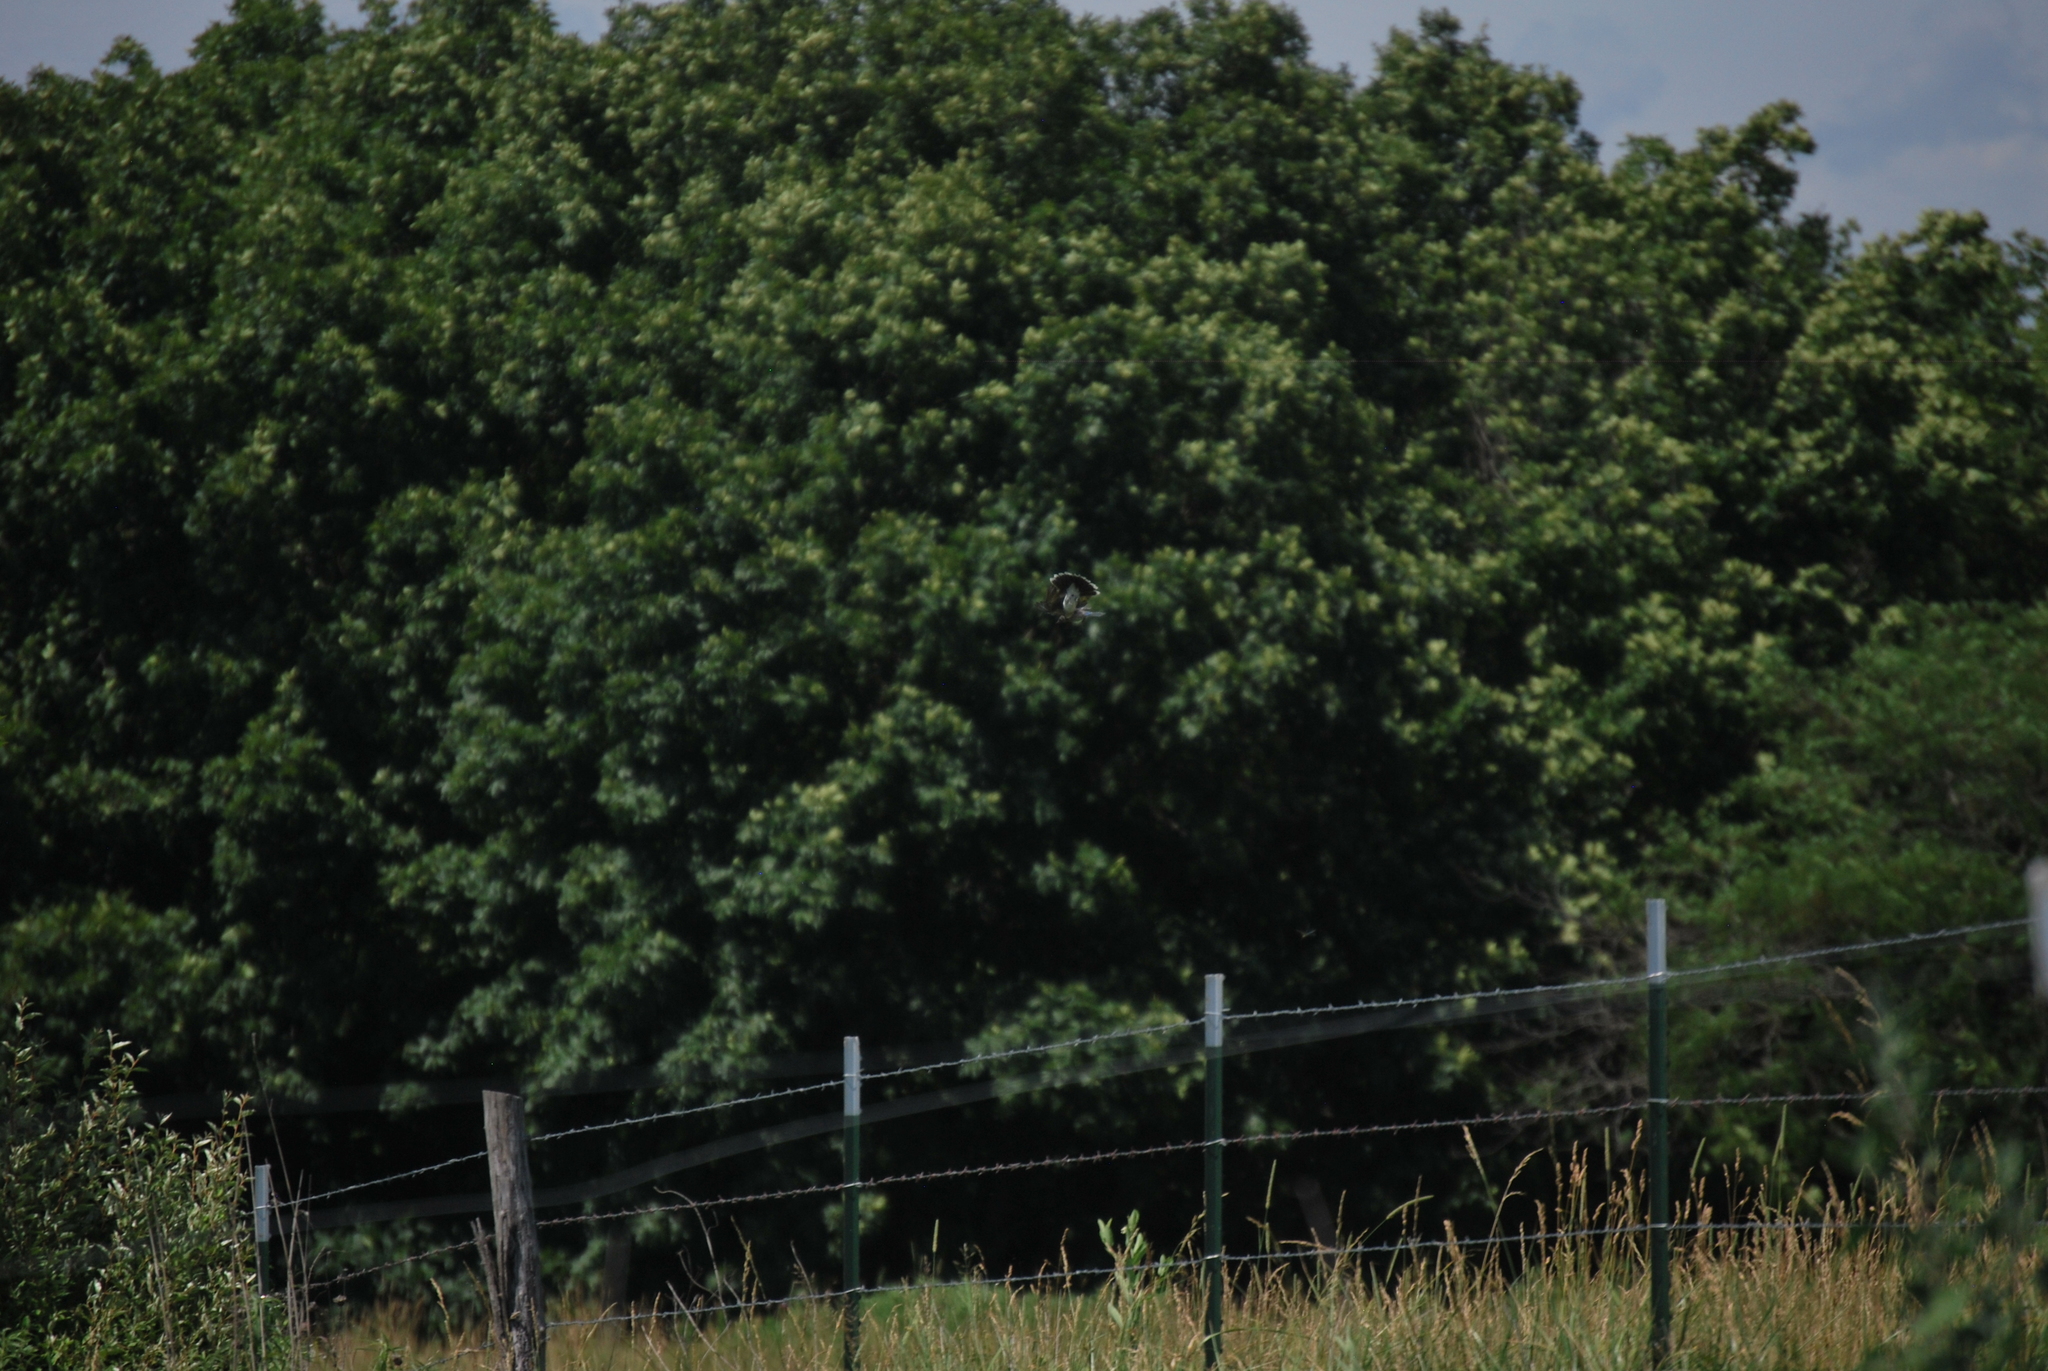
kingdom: Animalia
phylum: Chordata
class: Aves
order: Passeriformes
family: Tyrannidae
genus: Tyrannus
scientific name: Tyrannus tyrannus
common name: Eastern kingbird
